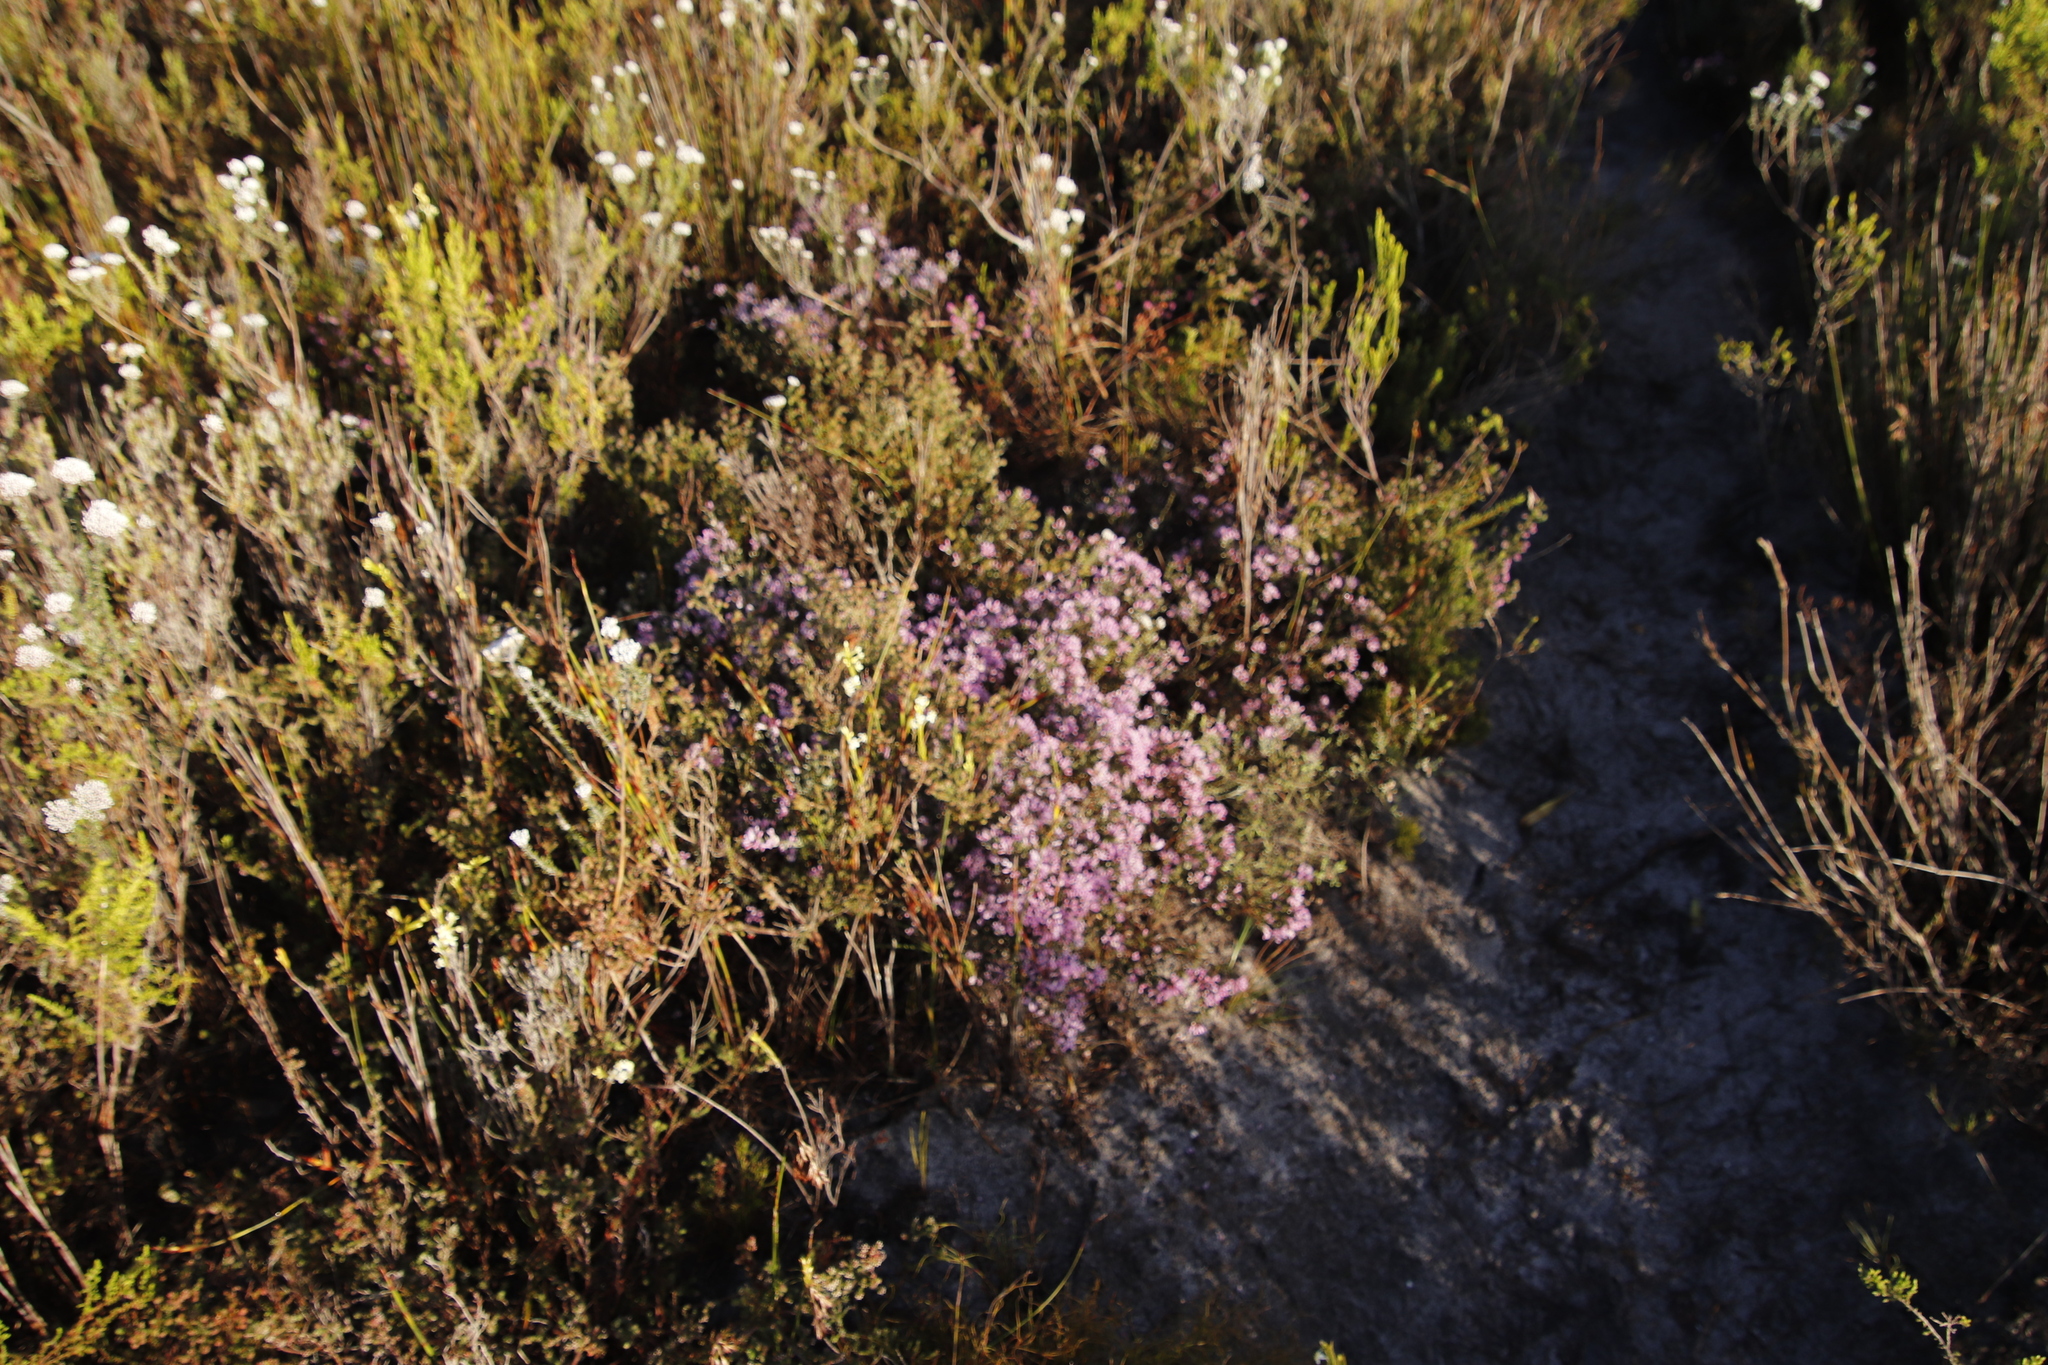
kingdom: Plantae
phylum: Tracheophyta
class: Magnoliopsida
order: Fabales
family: Fabaceae
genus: Amphithalea
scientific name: Amphithalea ericifolia
